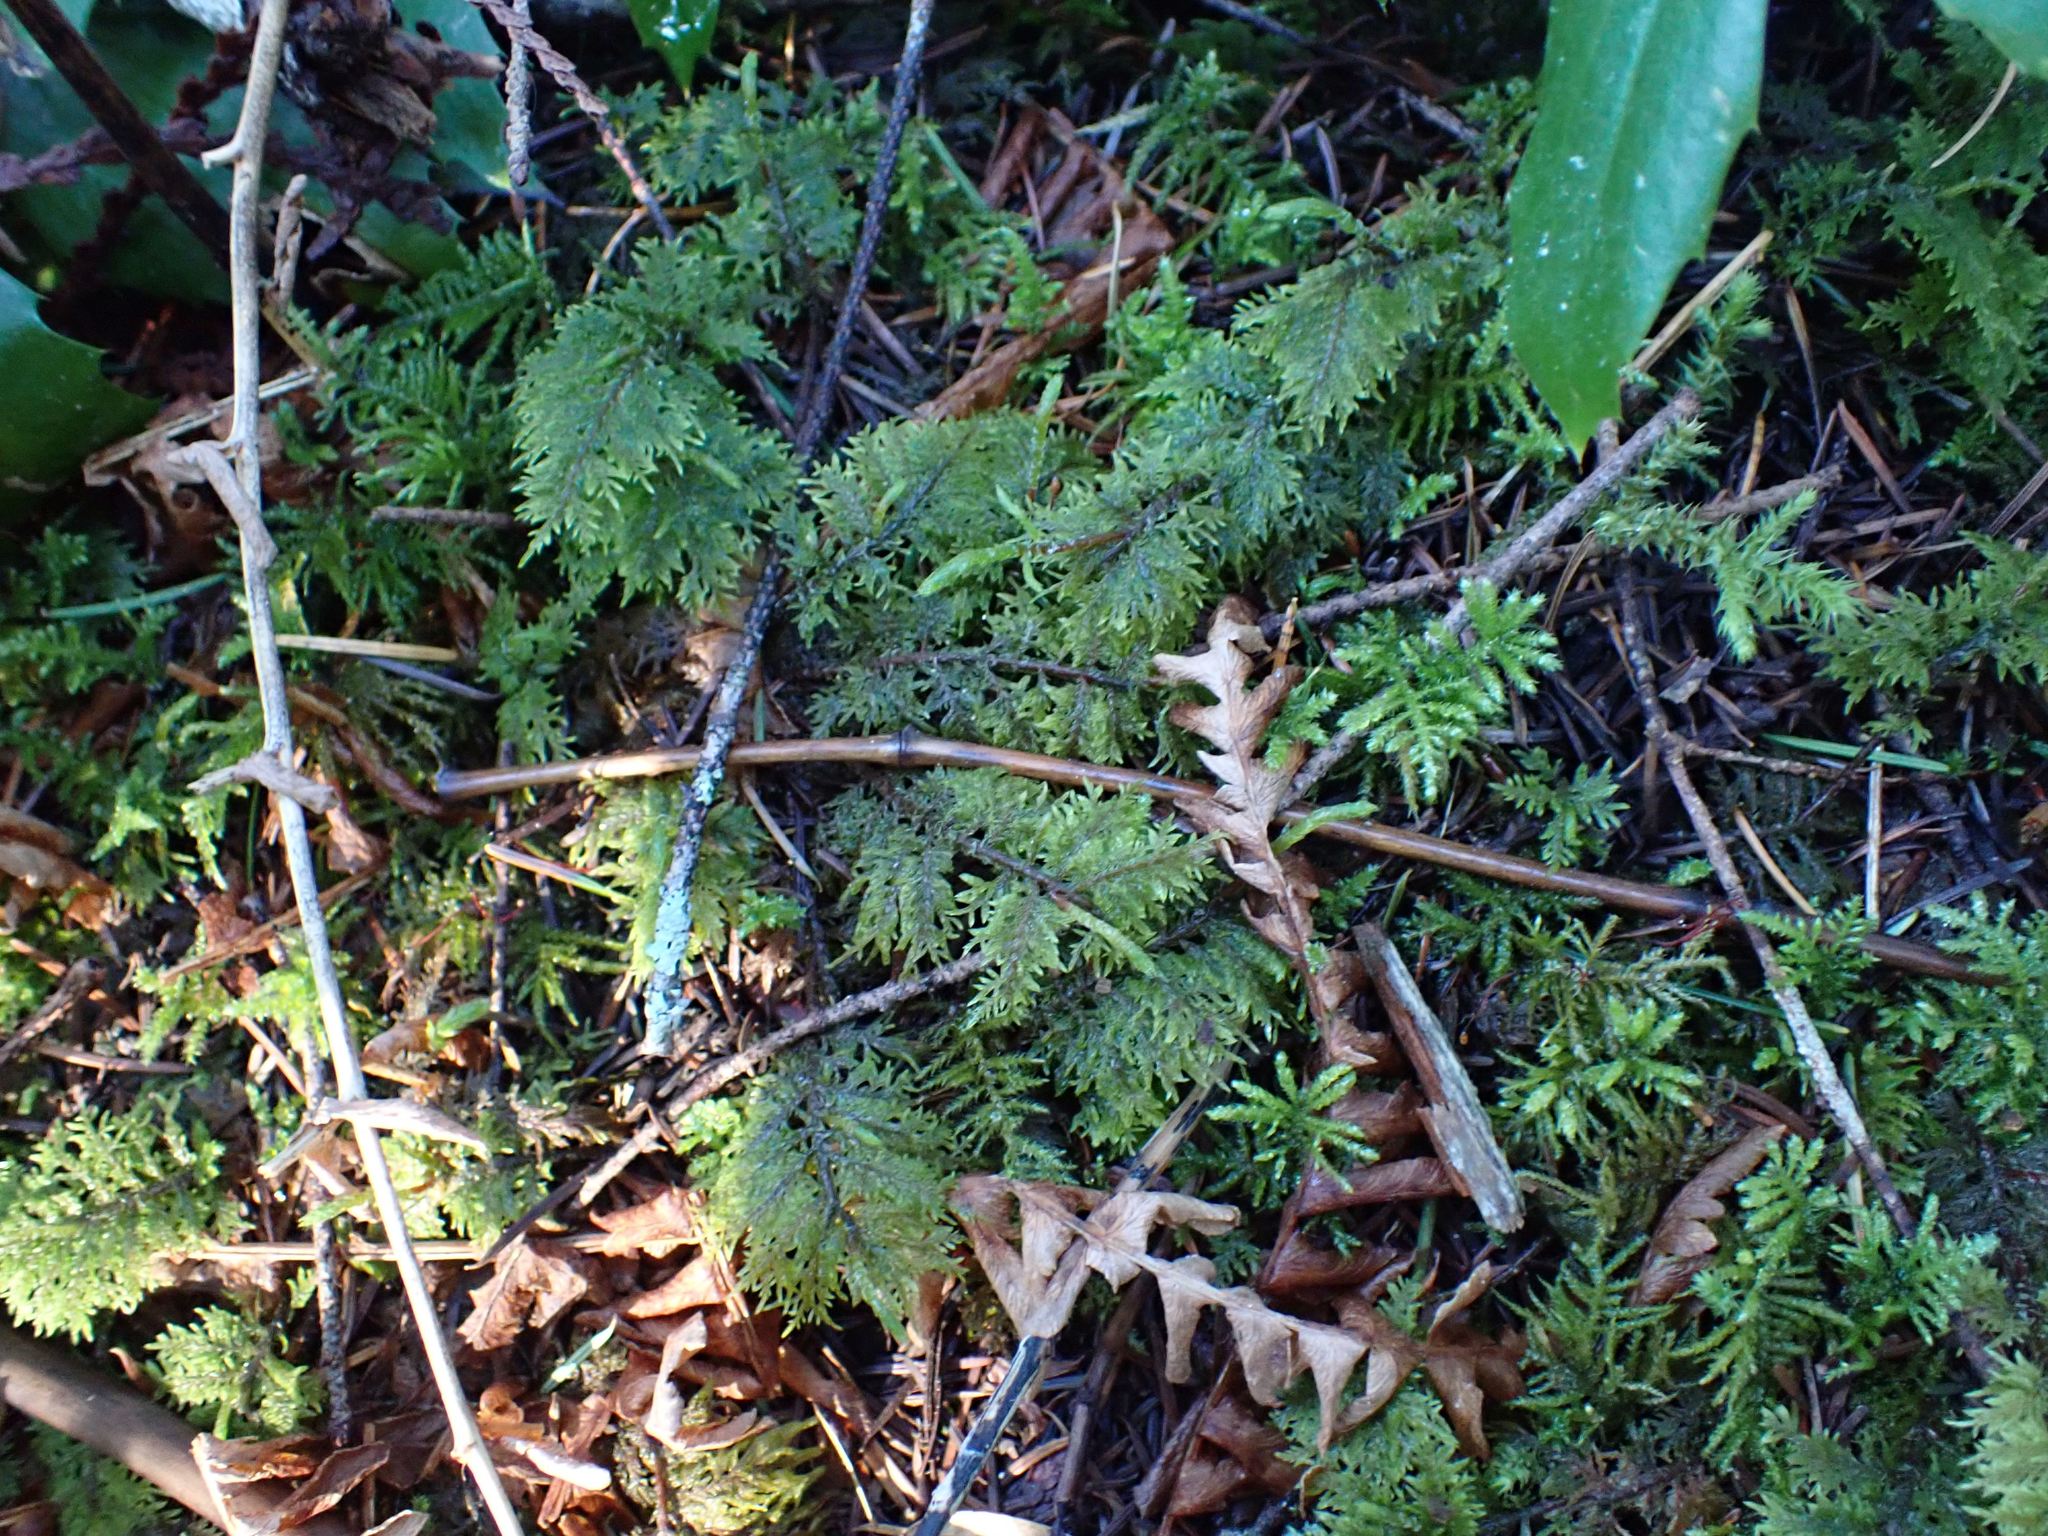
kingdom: Plantae
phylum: Bryophyta
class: Bryopsida
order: Hypnales
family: Hylocomiaceae
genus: Hylocomium
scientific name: Hylocomium splendens
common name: Stairstep moss
